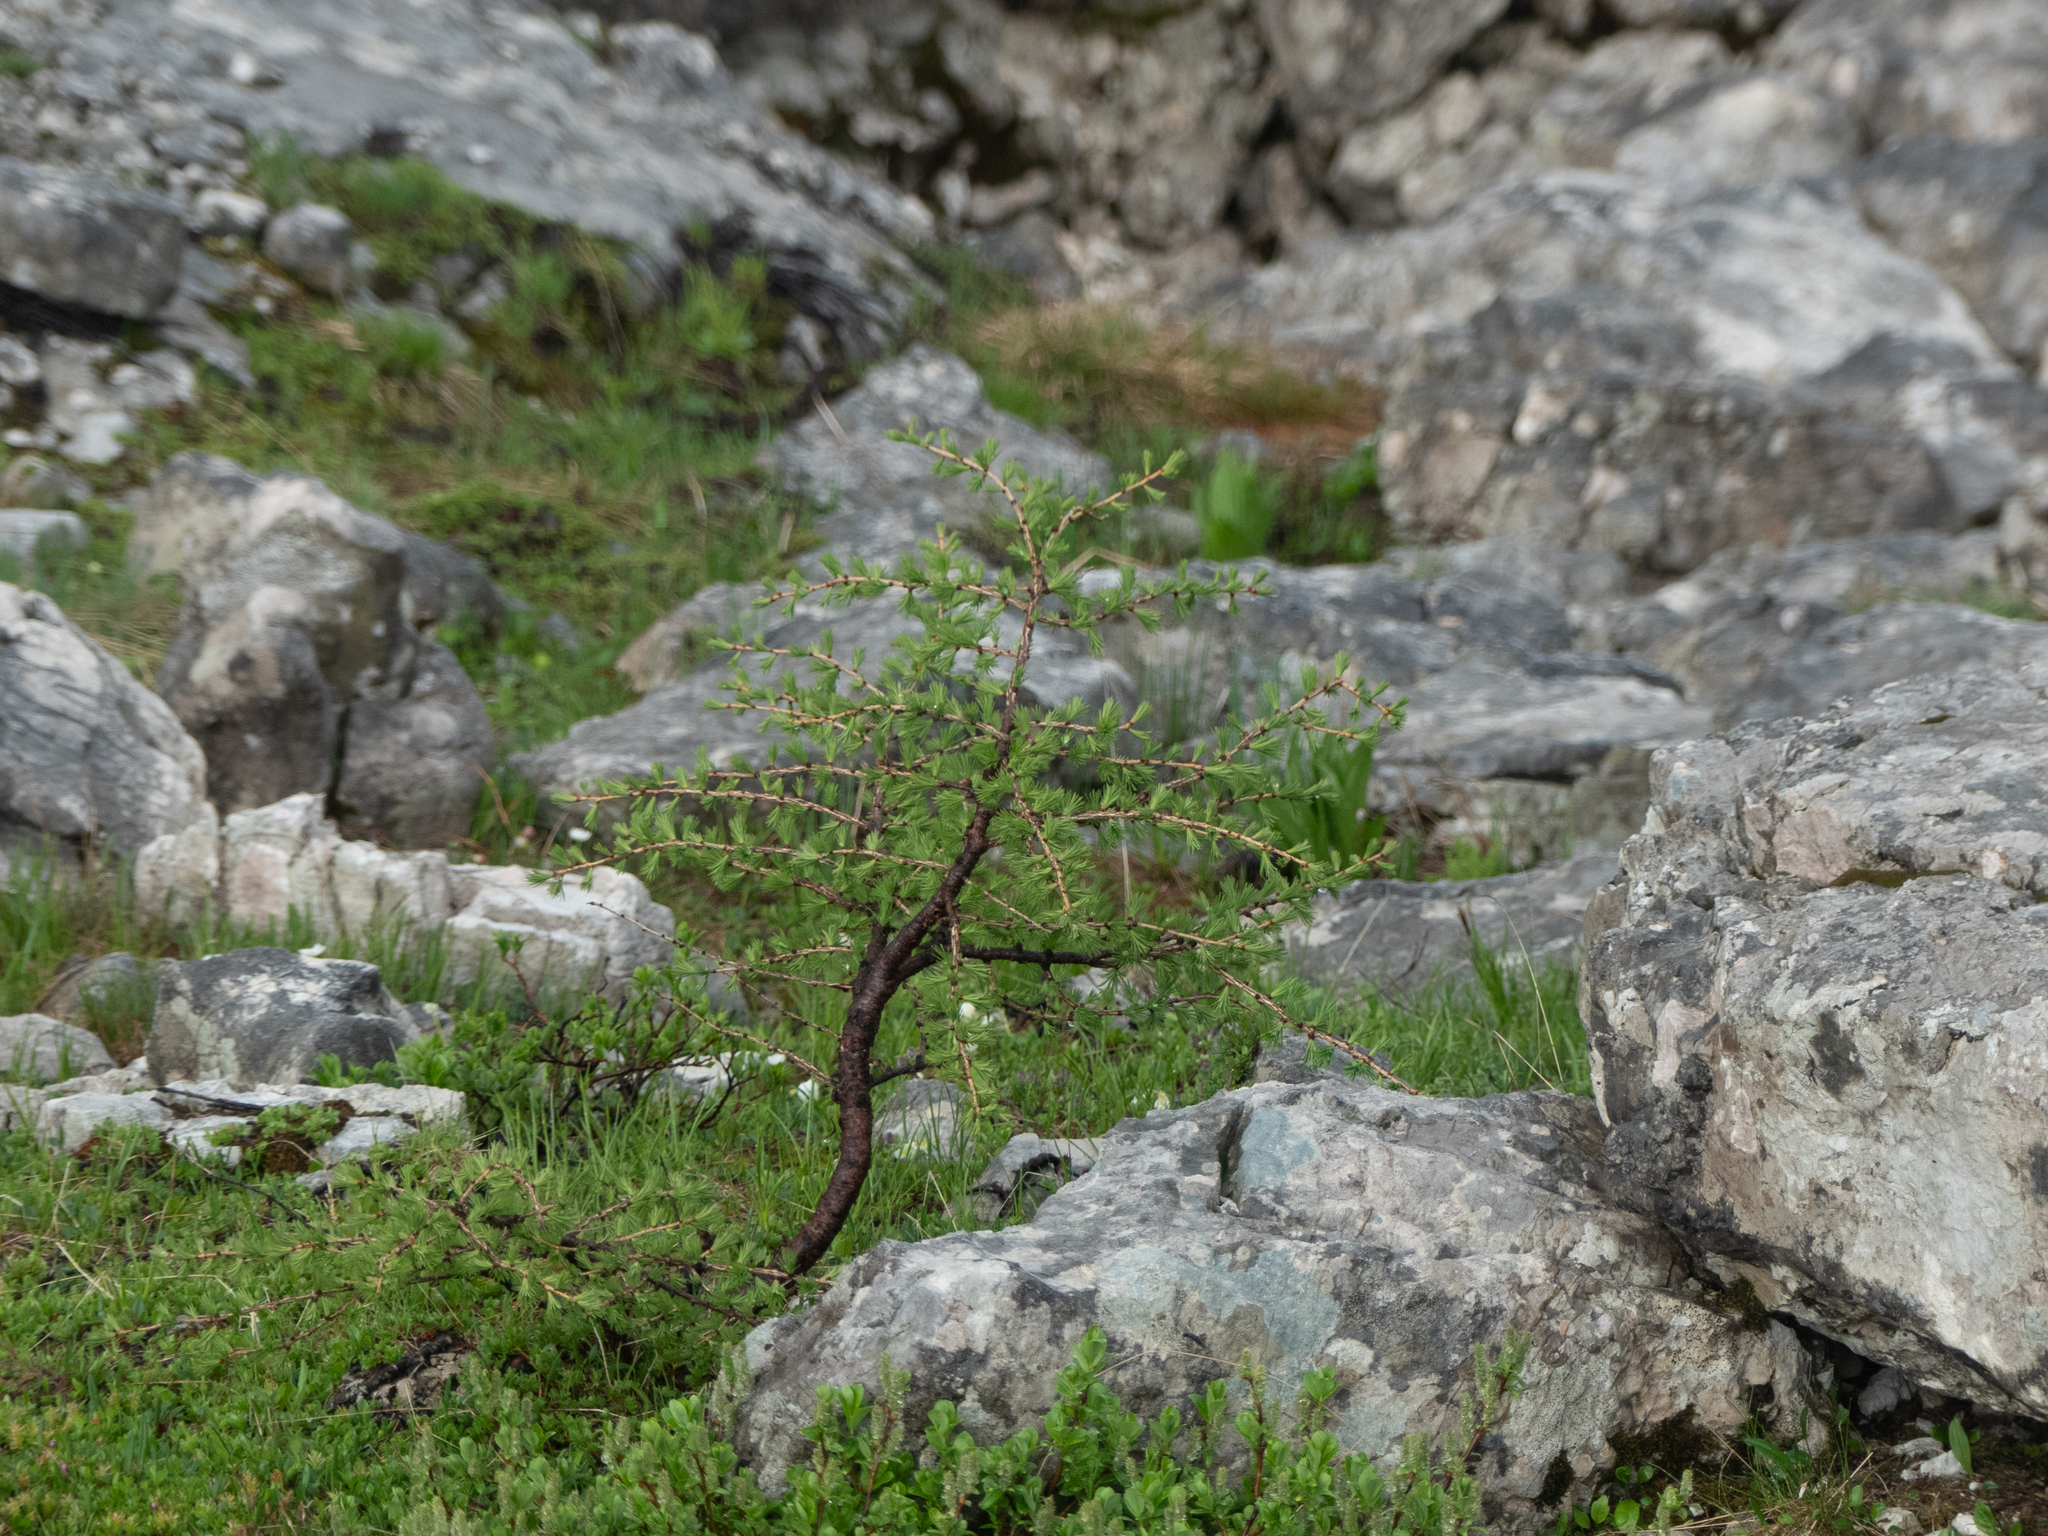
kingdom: Plantae
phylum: Tracheophyta
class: Pinopsida
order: Pinales
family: Pinaceae
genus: Larix
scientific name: Larix decidua
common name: European larch
